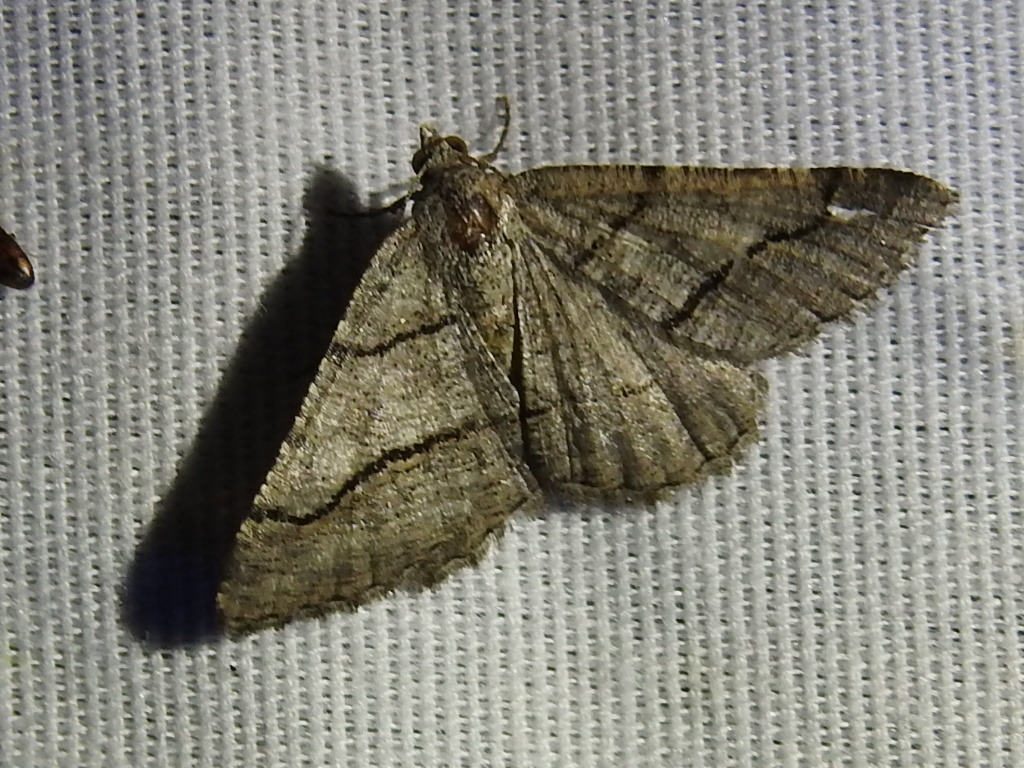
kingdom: Animalia
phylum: Arthropoda
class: Insecta
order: Lepidoptera
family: Geometridae
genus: Digrammia
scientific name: Digrammia continuata
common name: Curve-lined angle
